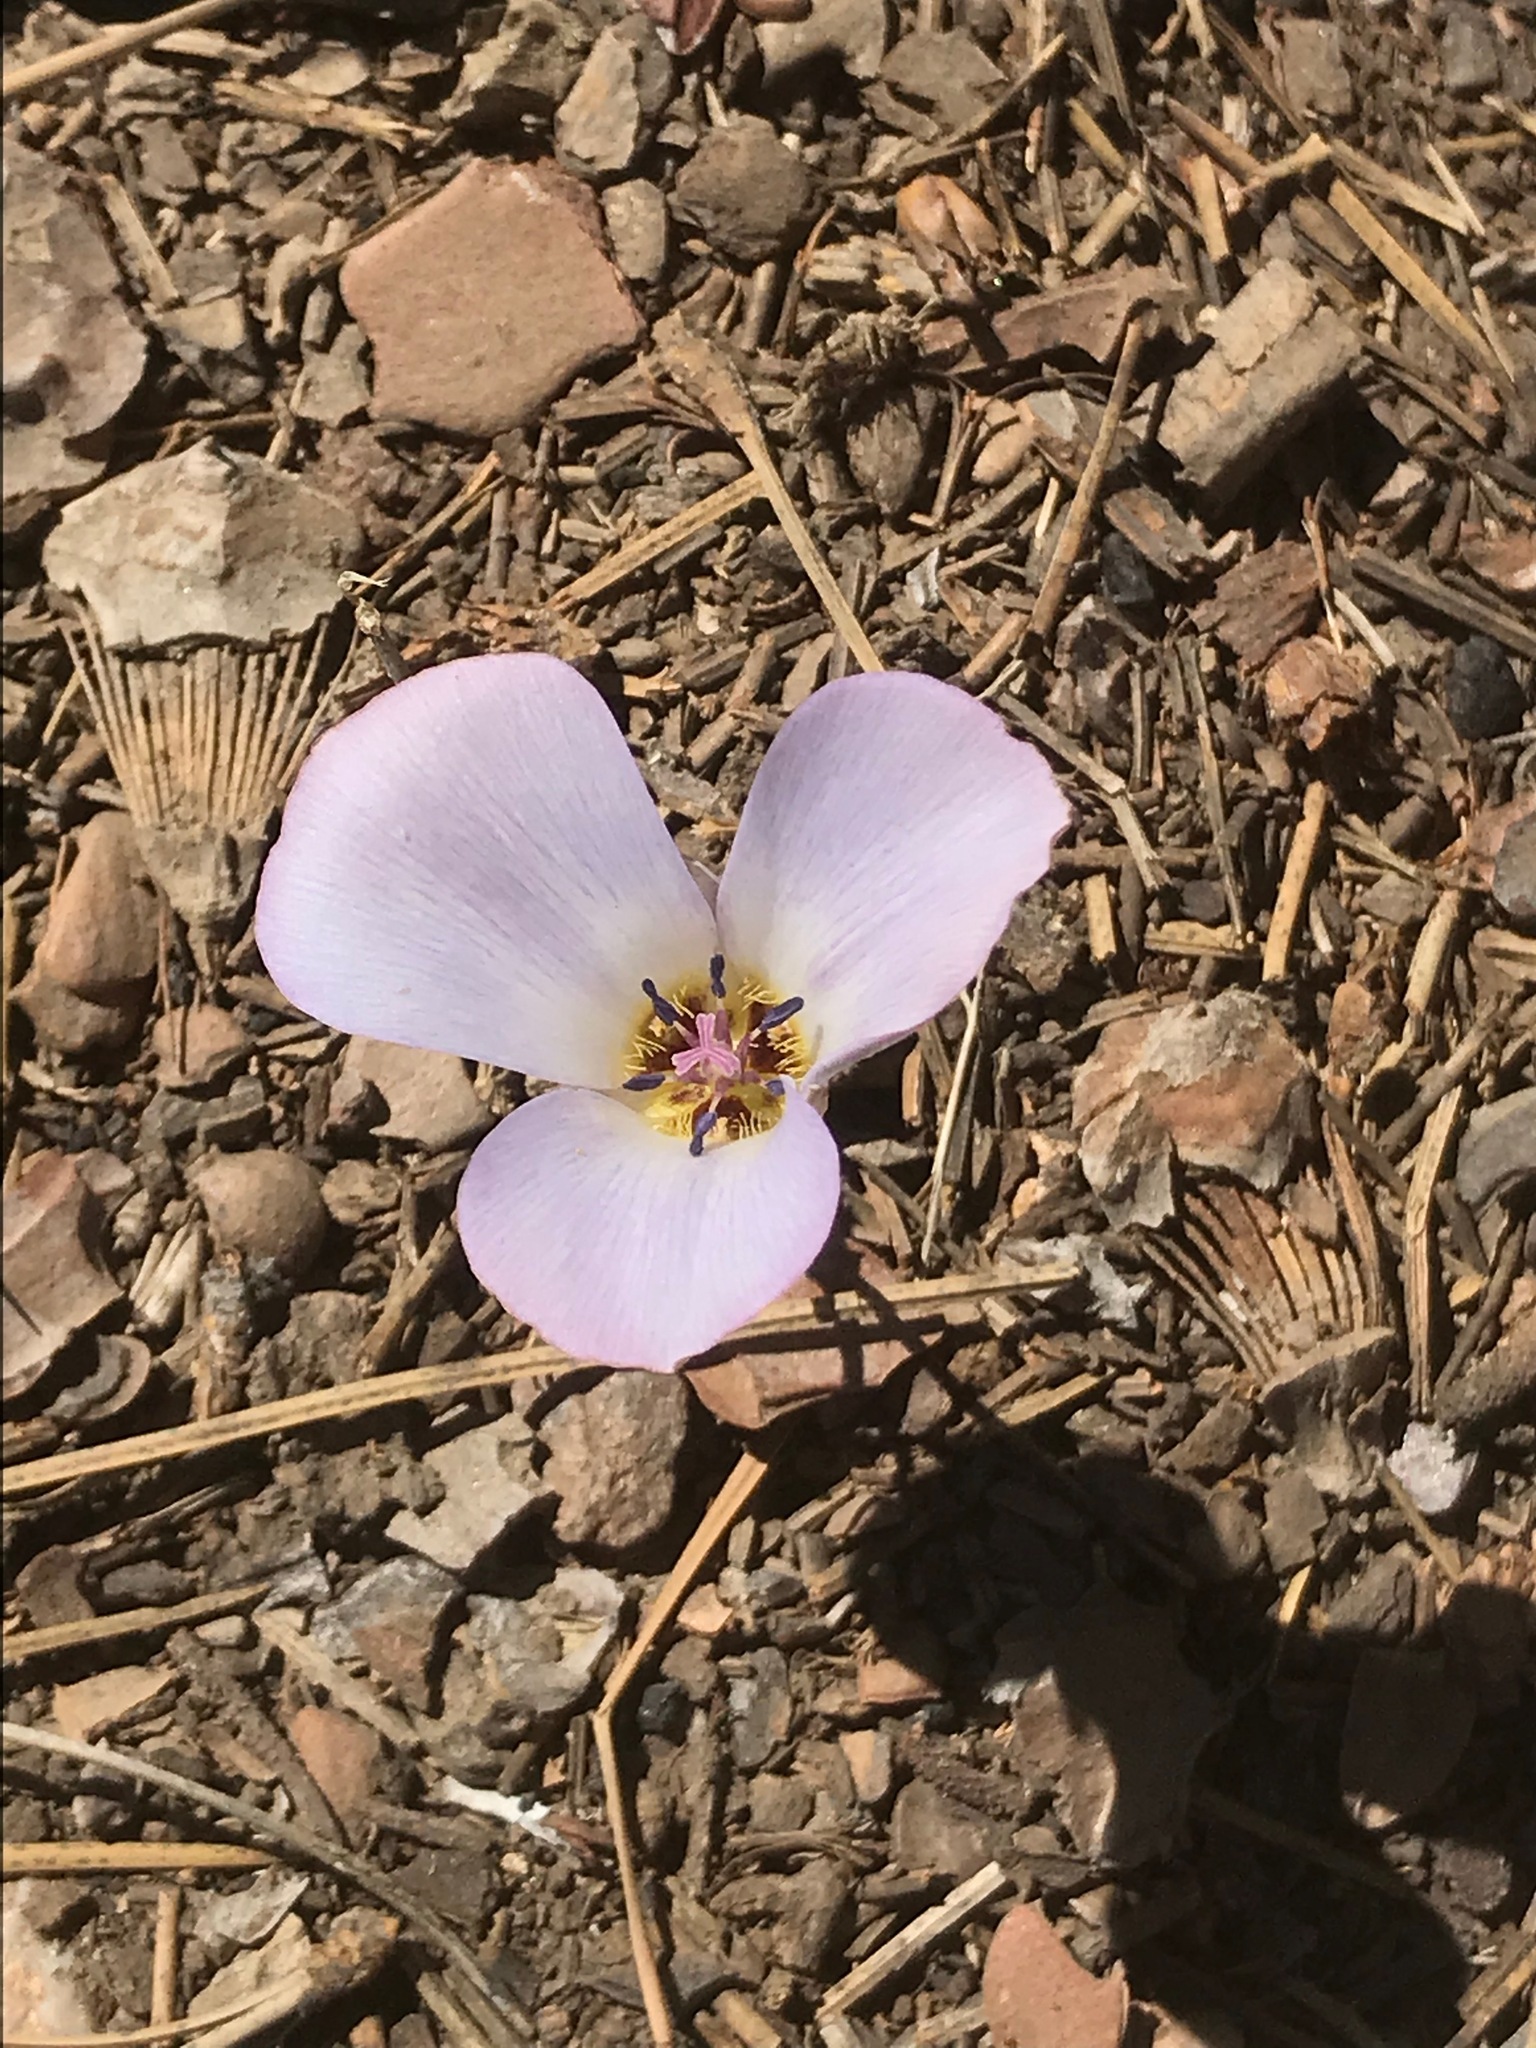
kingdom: Plantae
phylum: Tracheophyta
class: Liliopsida
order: Liliales
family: Liliaceae
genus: Calochortus
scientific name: Calochortus invenustus
